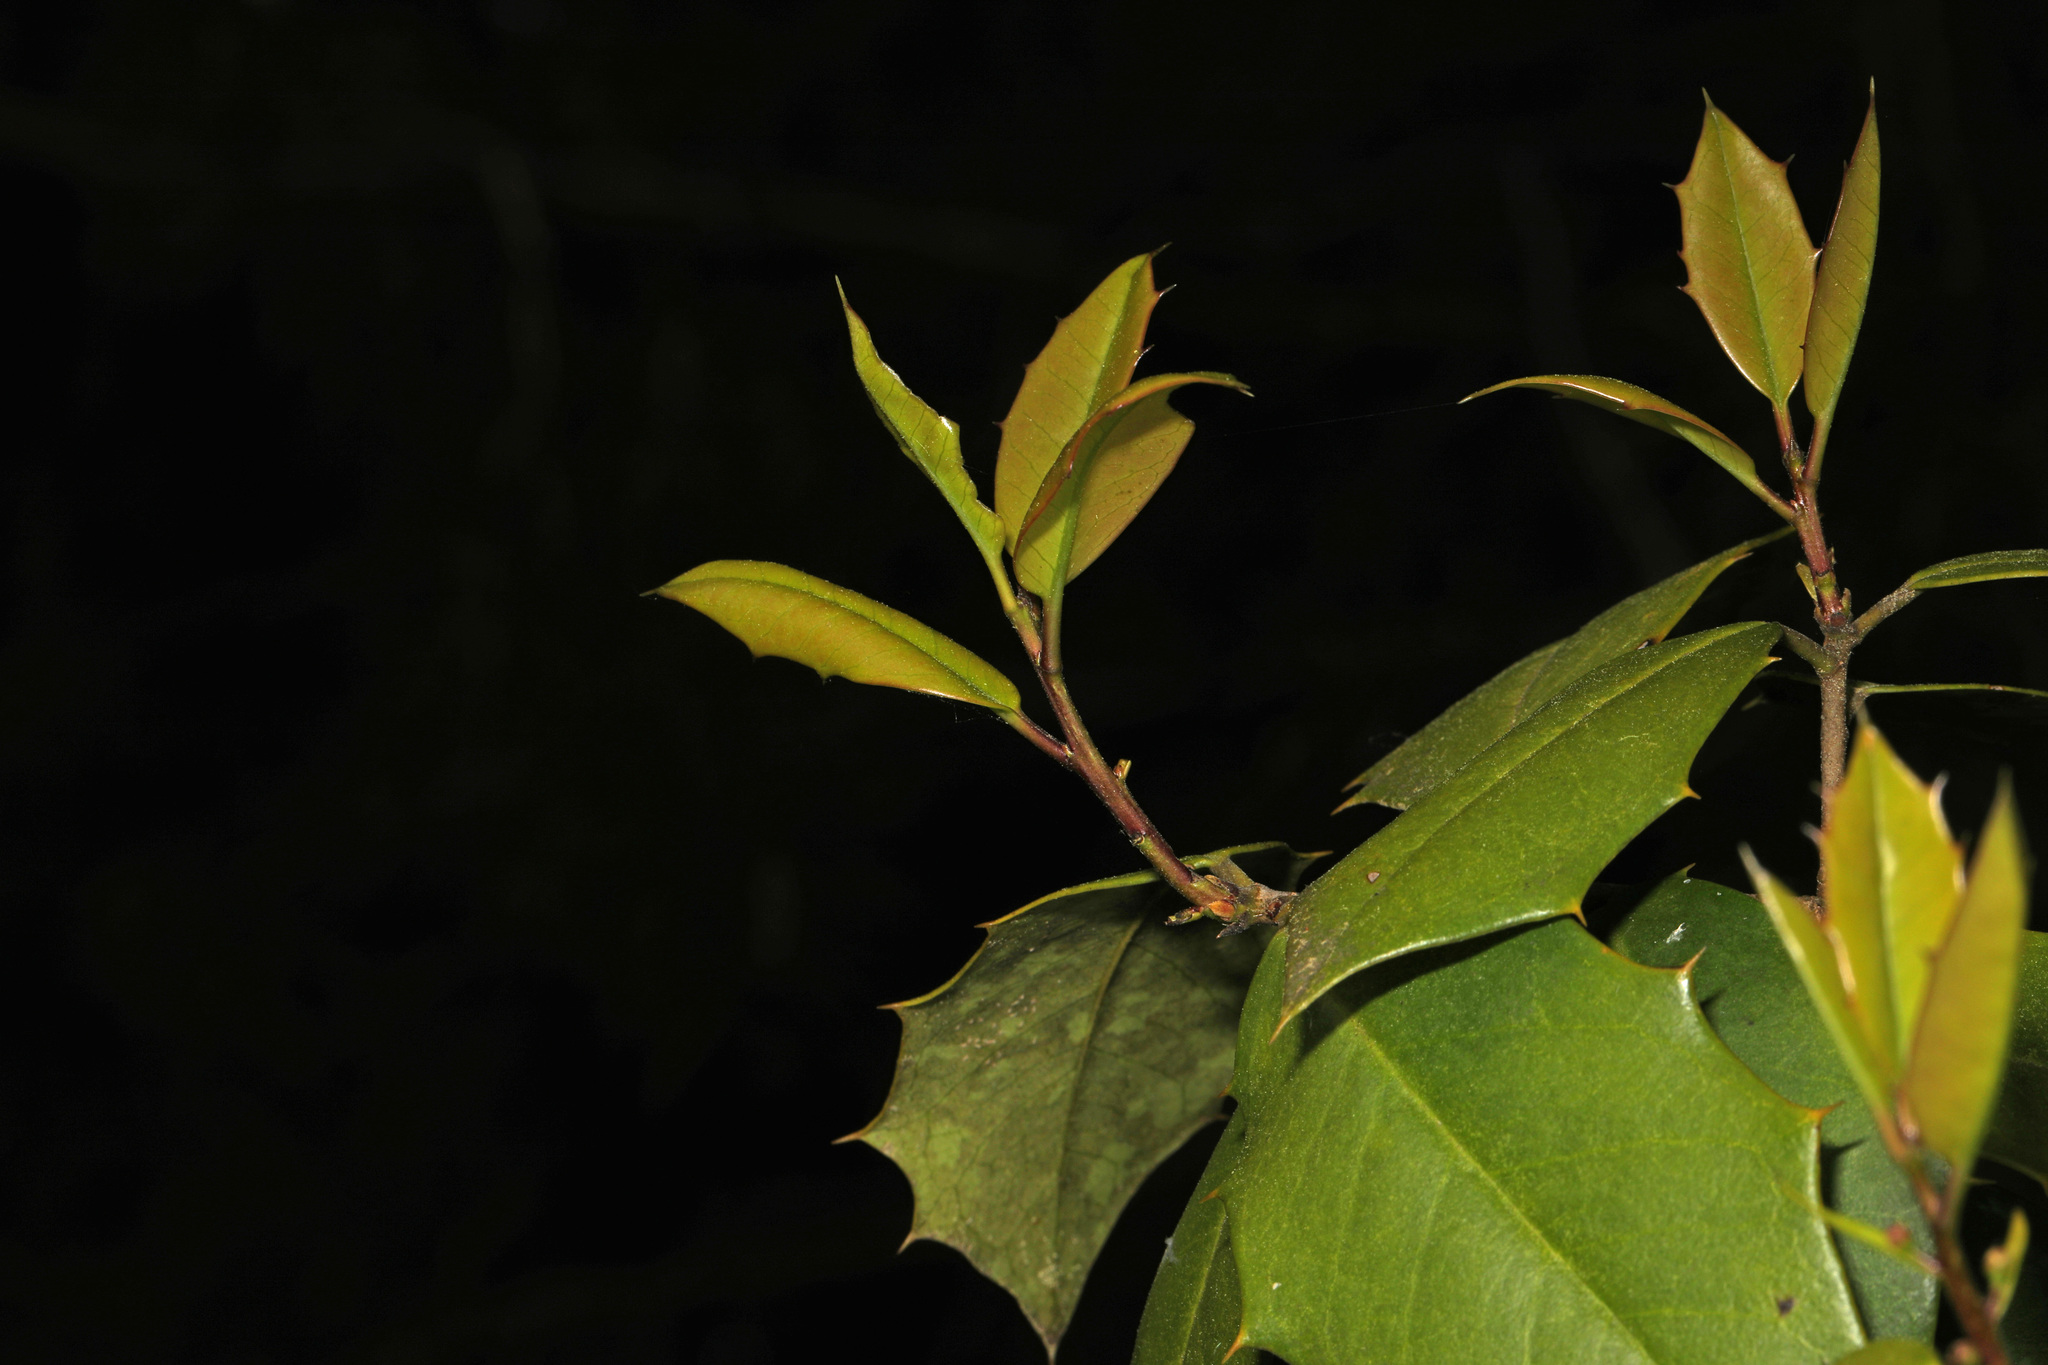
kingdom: Plantae
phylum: Tracheophyta
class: Magnoliopsida
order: Aquifoliales
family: Aquifoliaceae
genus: Ilex
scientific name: Ilex opaca
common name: American holly
